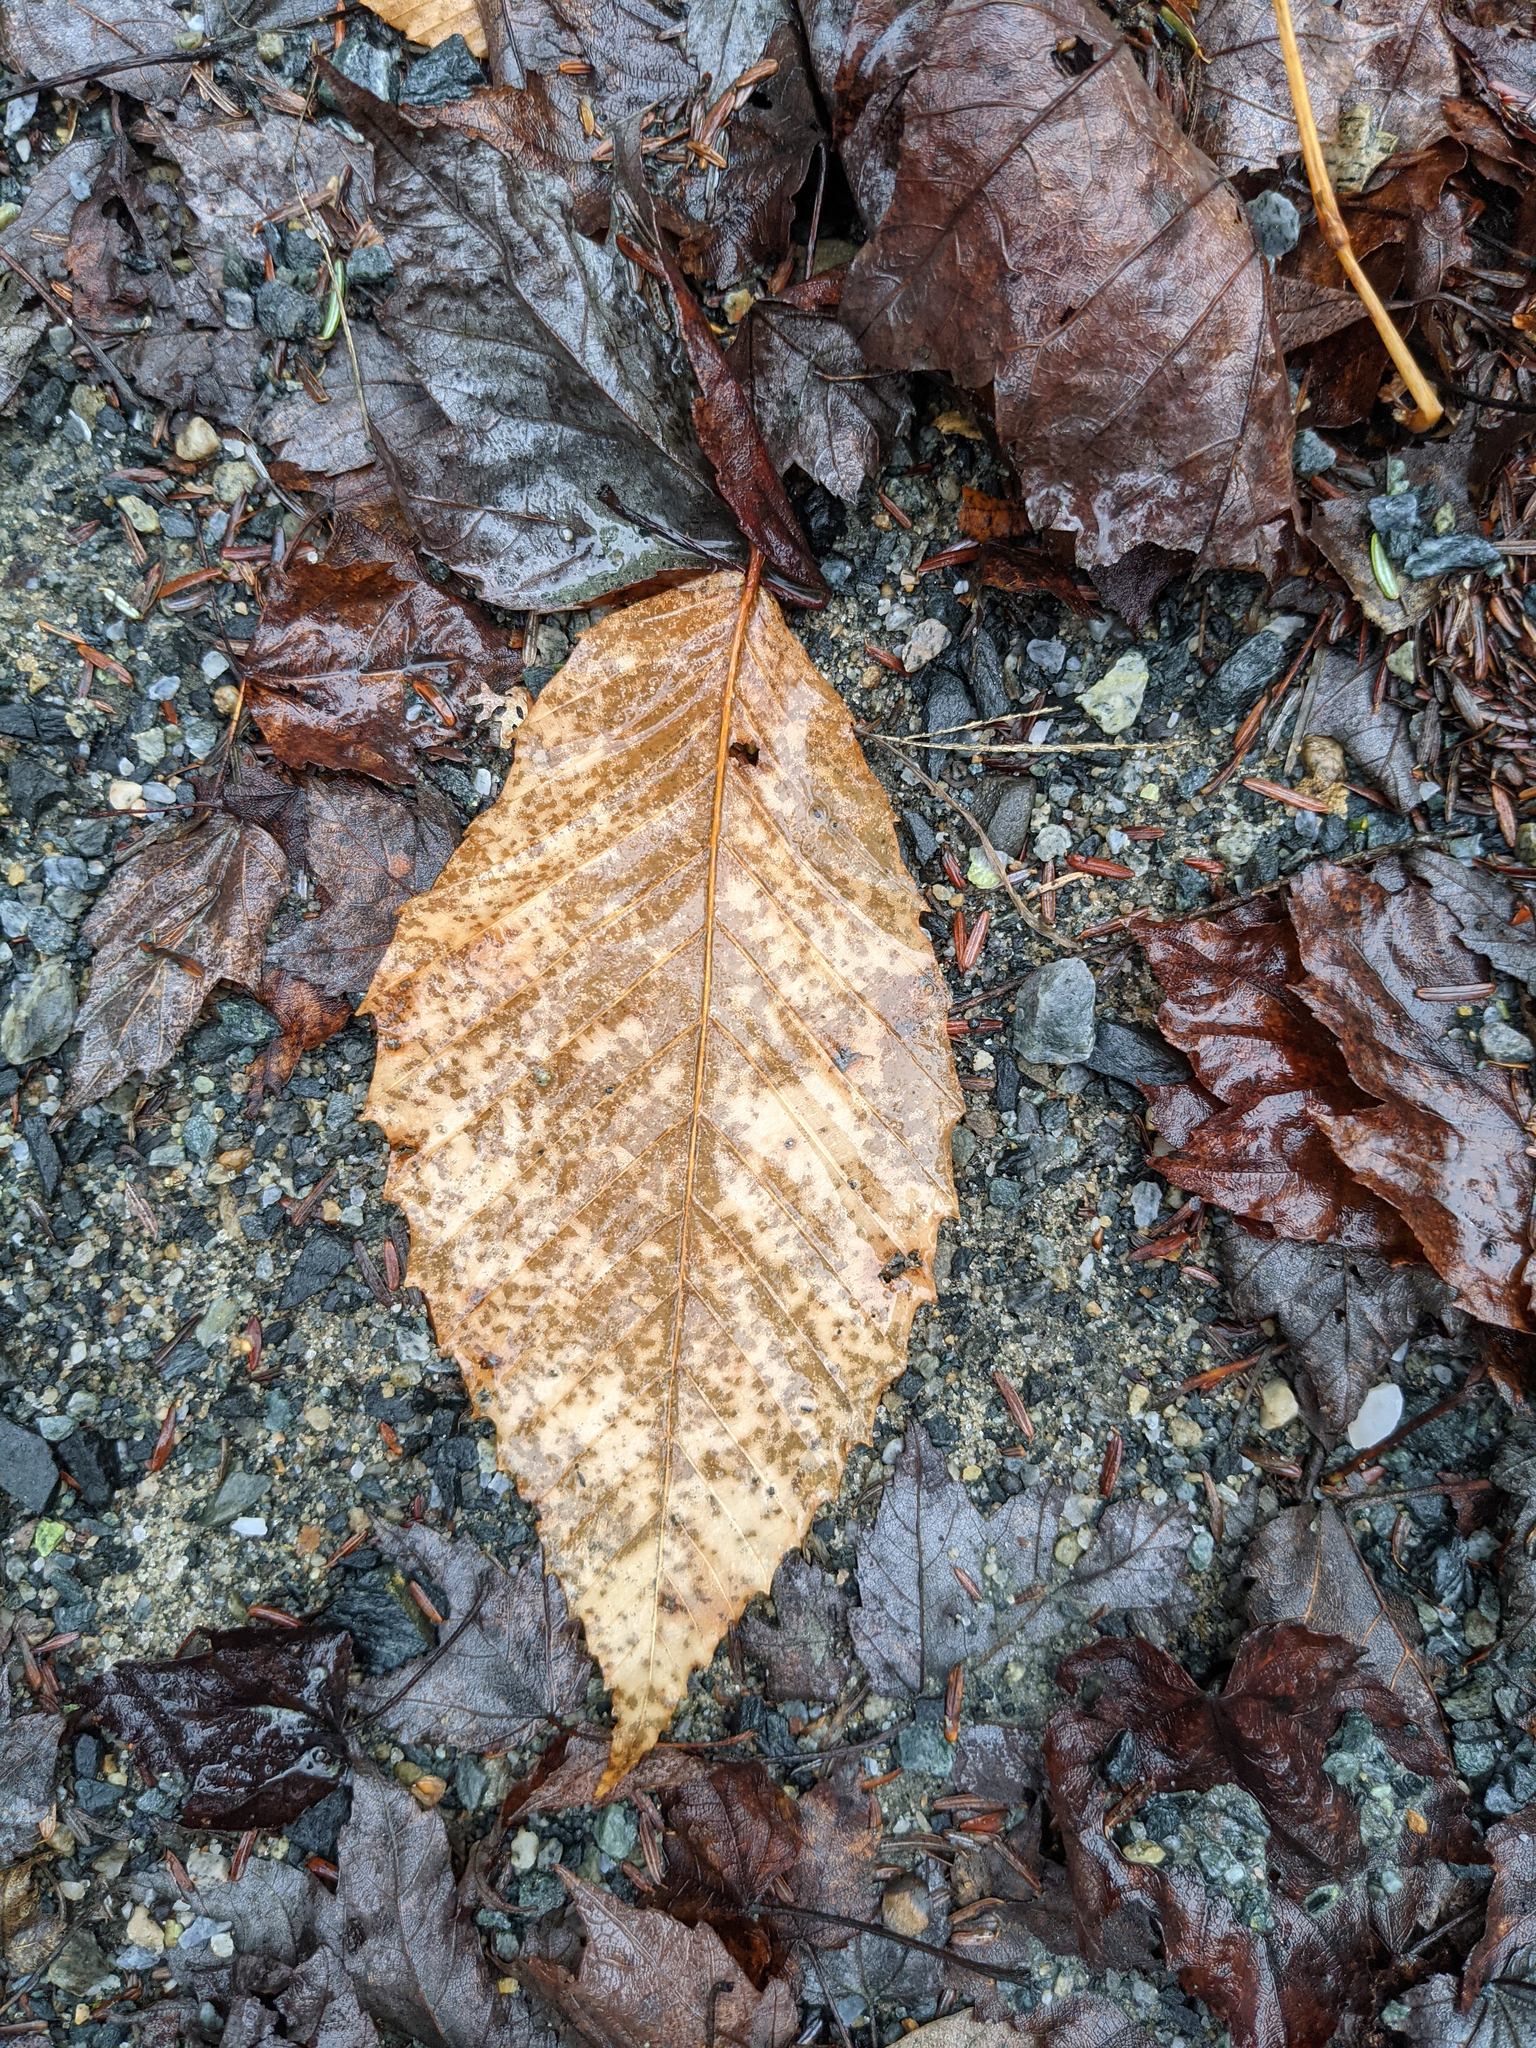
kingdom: Plantae
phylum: Tracheophyta
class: Magnoliopsida
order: Fagales
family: Fagaceae
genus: Fagus
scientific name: Fagus grandifolia
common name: American beech
